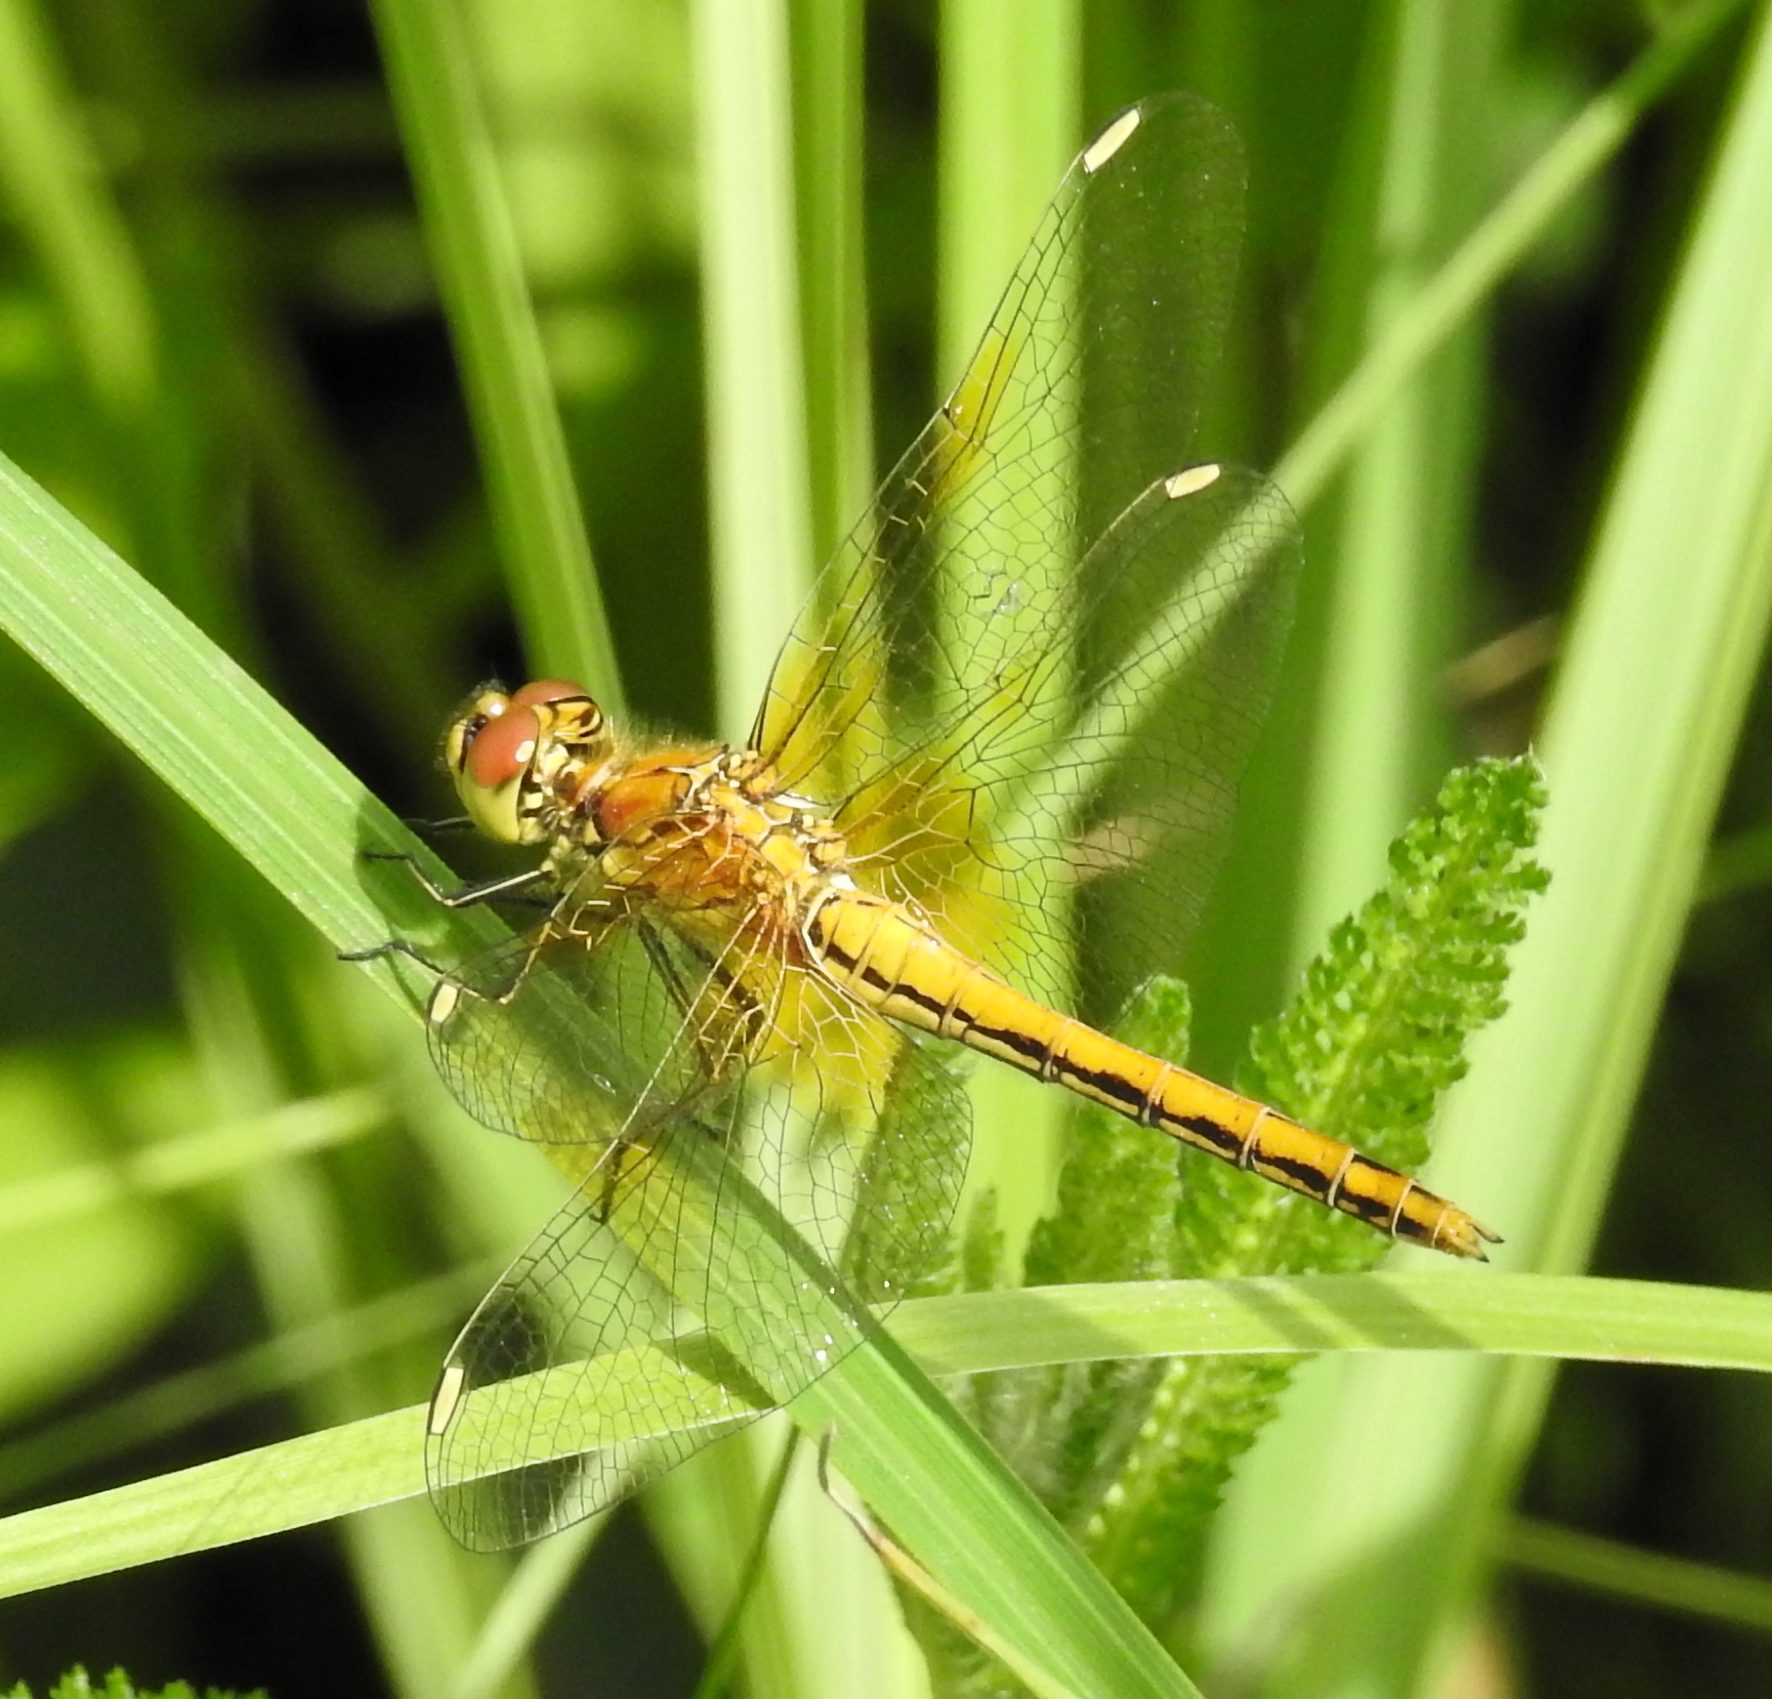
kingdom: Animalia
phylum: Arthropoda
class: Insecta
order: Odonata
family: Libellulidae
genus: Sympetrum
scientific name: Sympetrum flaveolum
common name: Yellow-winged darter
